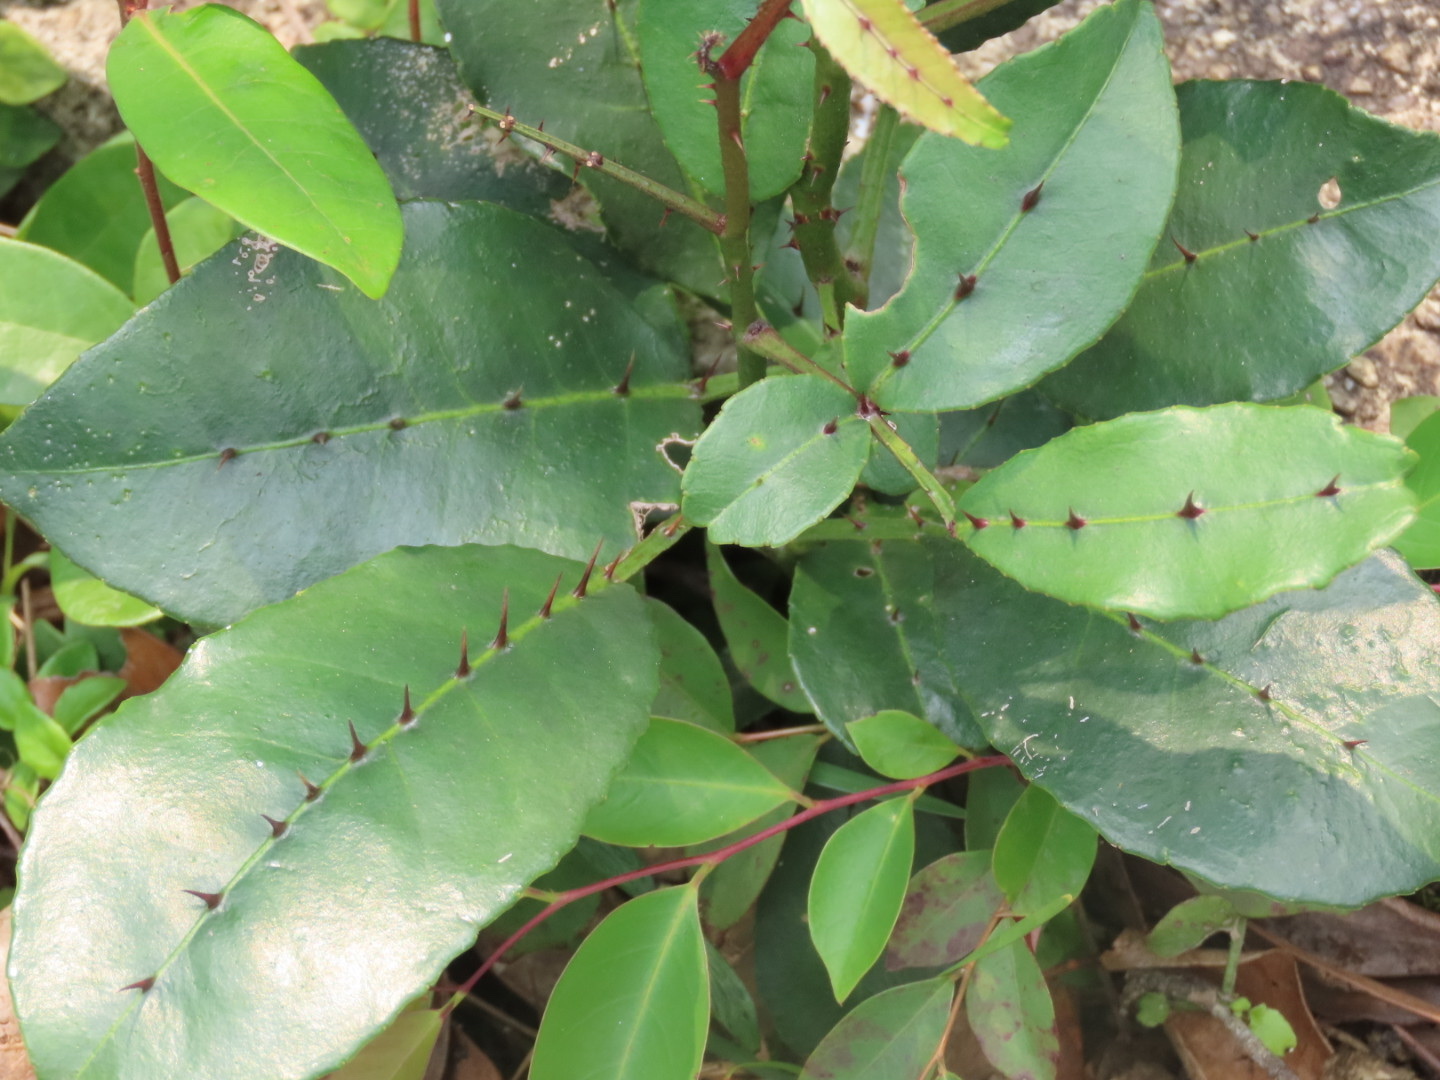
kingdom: Plantae
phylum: Tracheophyta
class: Magnoliopsida
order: Sapindales
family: Rutaceae
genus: Zanthoxylum
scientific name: Zanthoxylum nitidum
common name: Shiny-leaf prickly-ash
